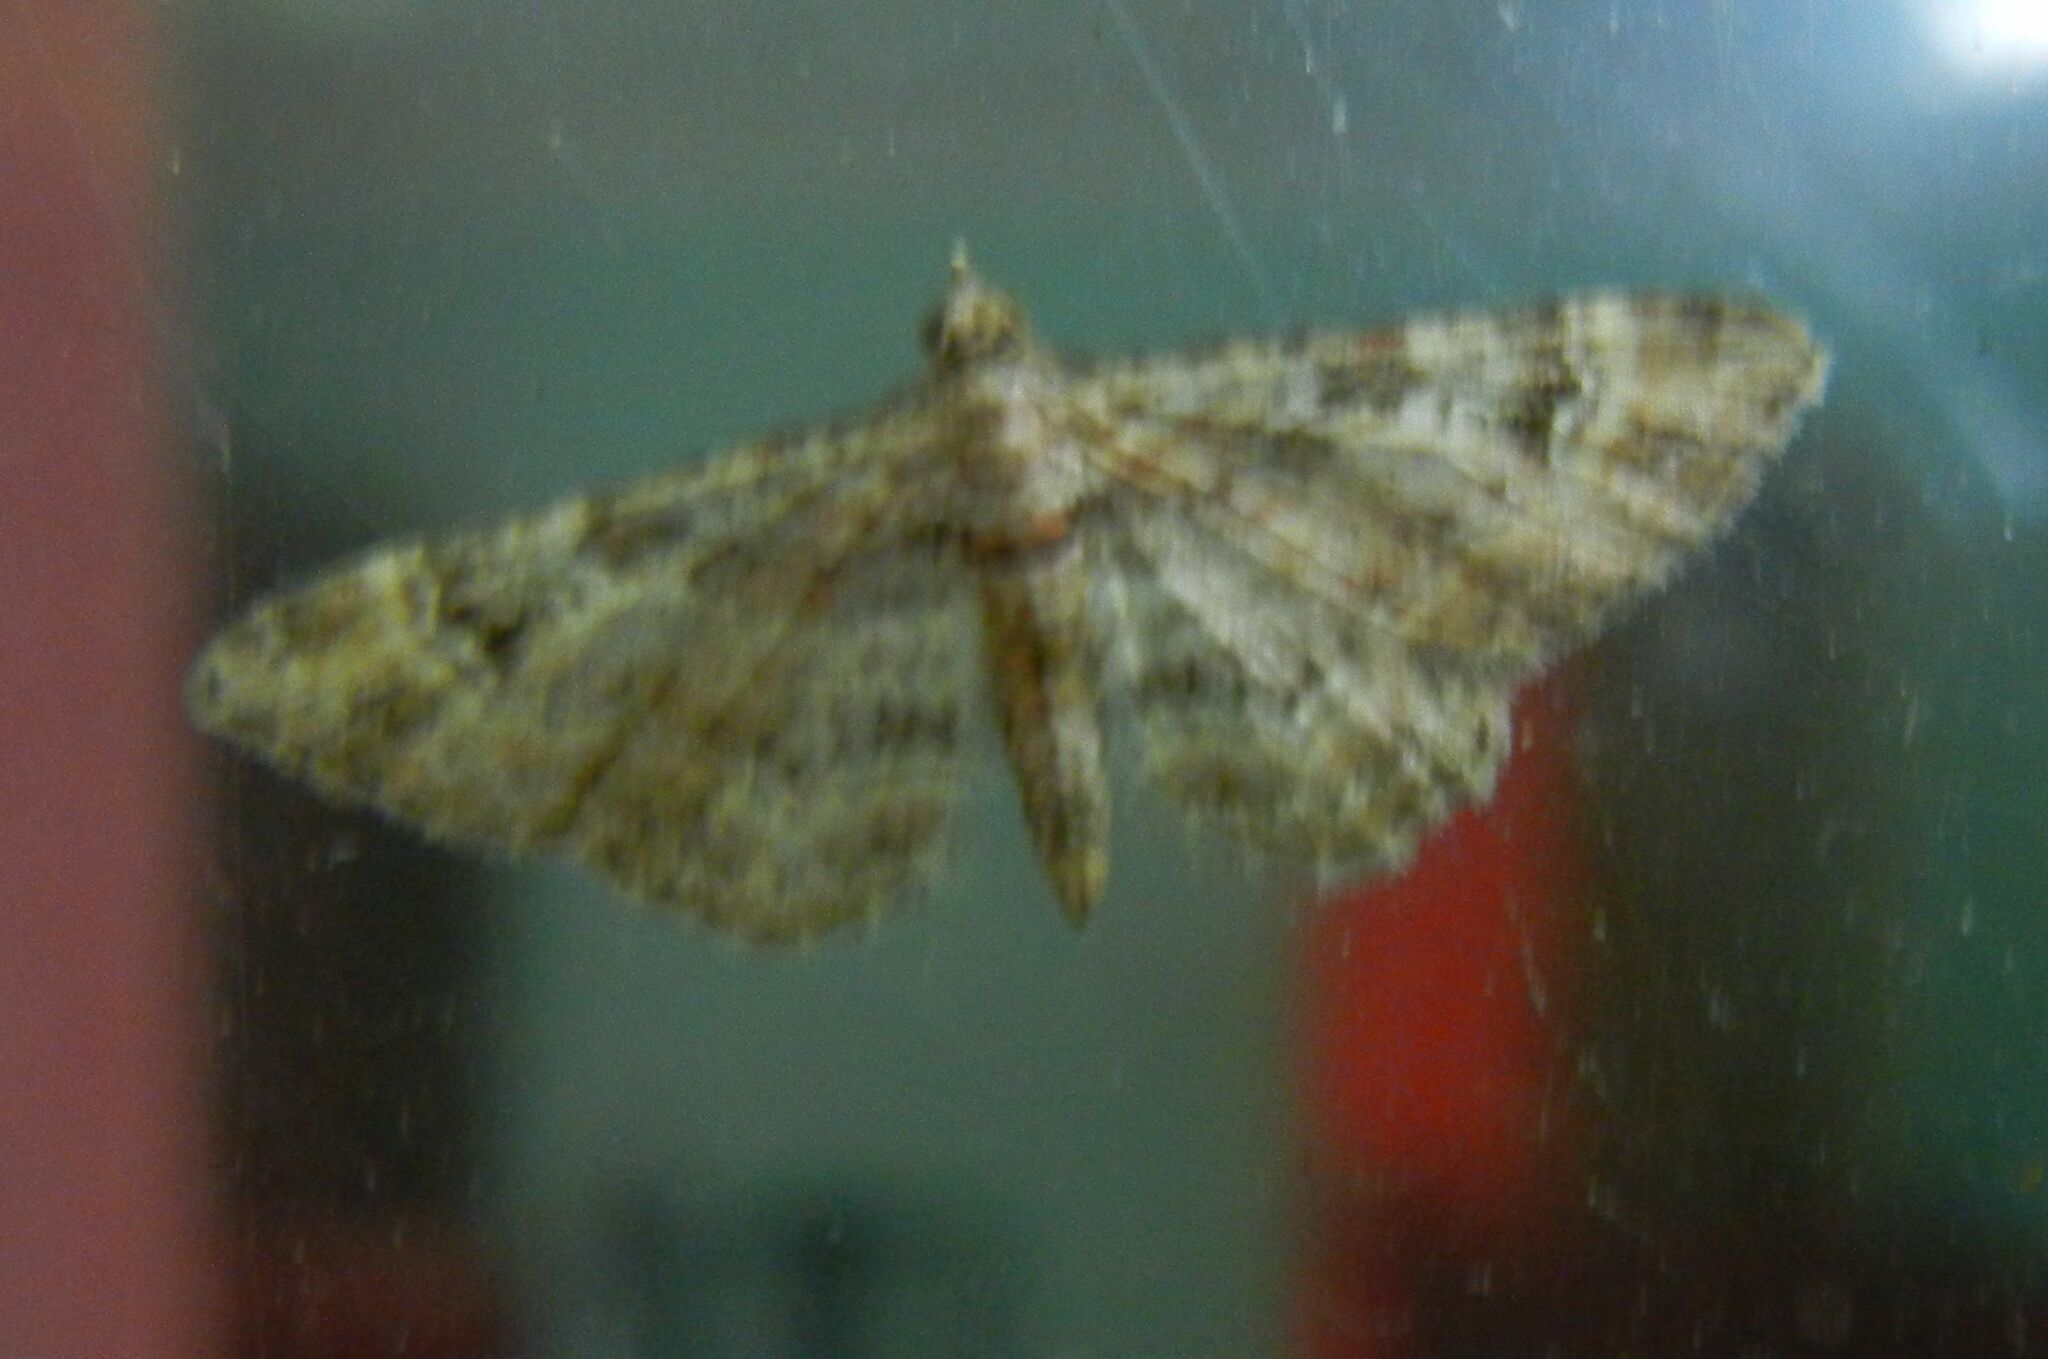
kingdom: Animalia
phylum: Arthropoda
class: Insecta
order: Lepidoptera
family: Geometridae
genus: Gymnoscelis
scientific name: Gymnoscelis rufifasciata
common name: Double-striped pug
